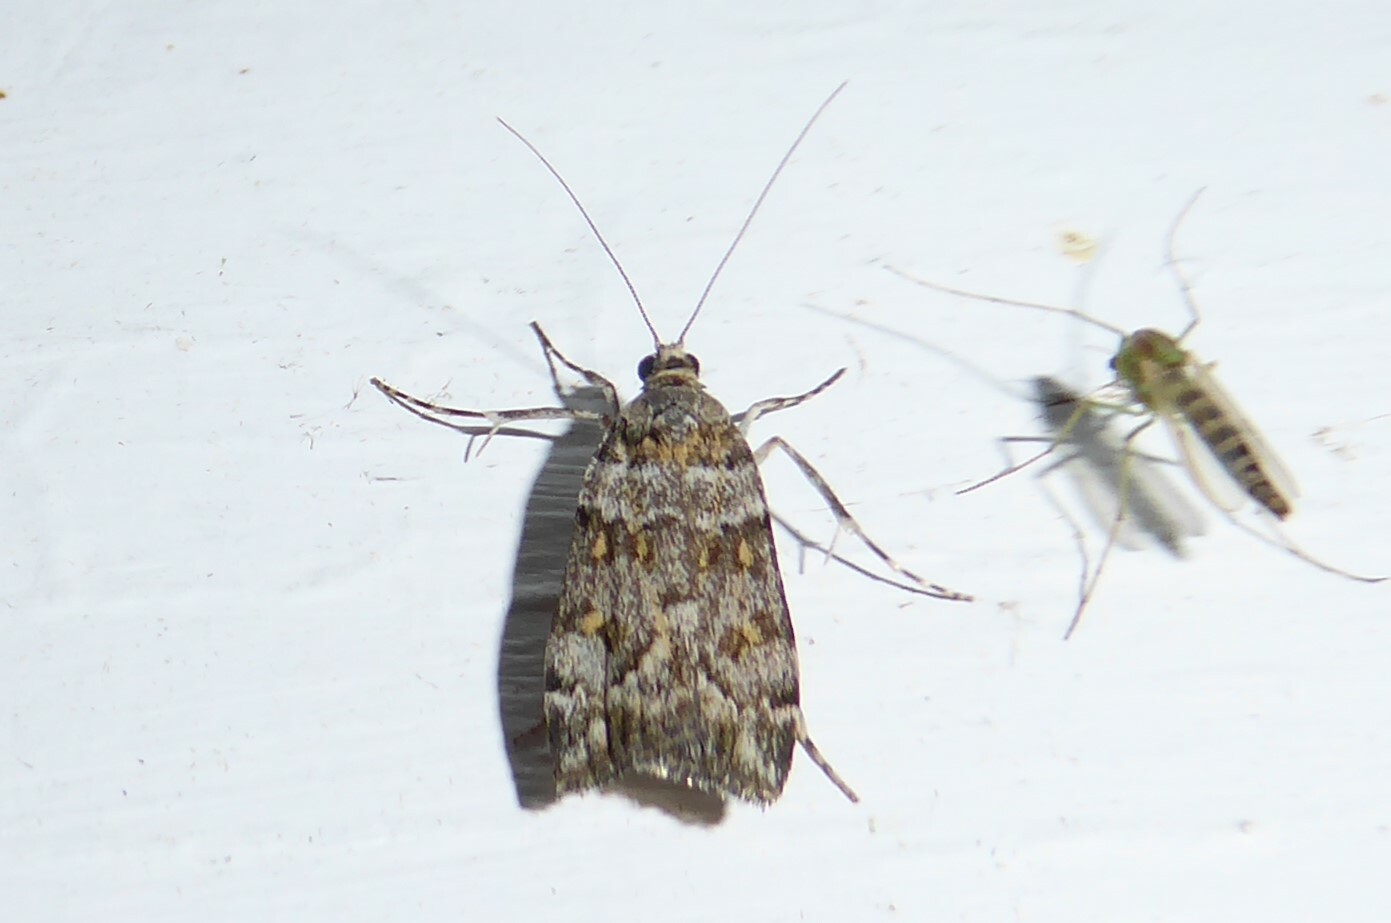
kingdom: Animalia
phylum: Arthropoda
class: Insecta
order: Lepidoptera
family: Crambidae
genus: Scoparia
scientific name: Scoparia tetracycla
